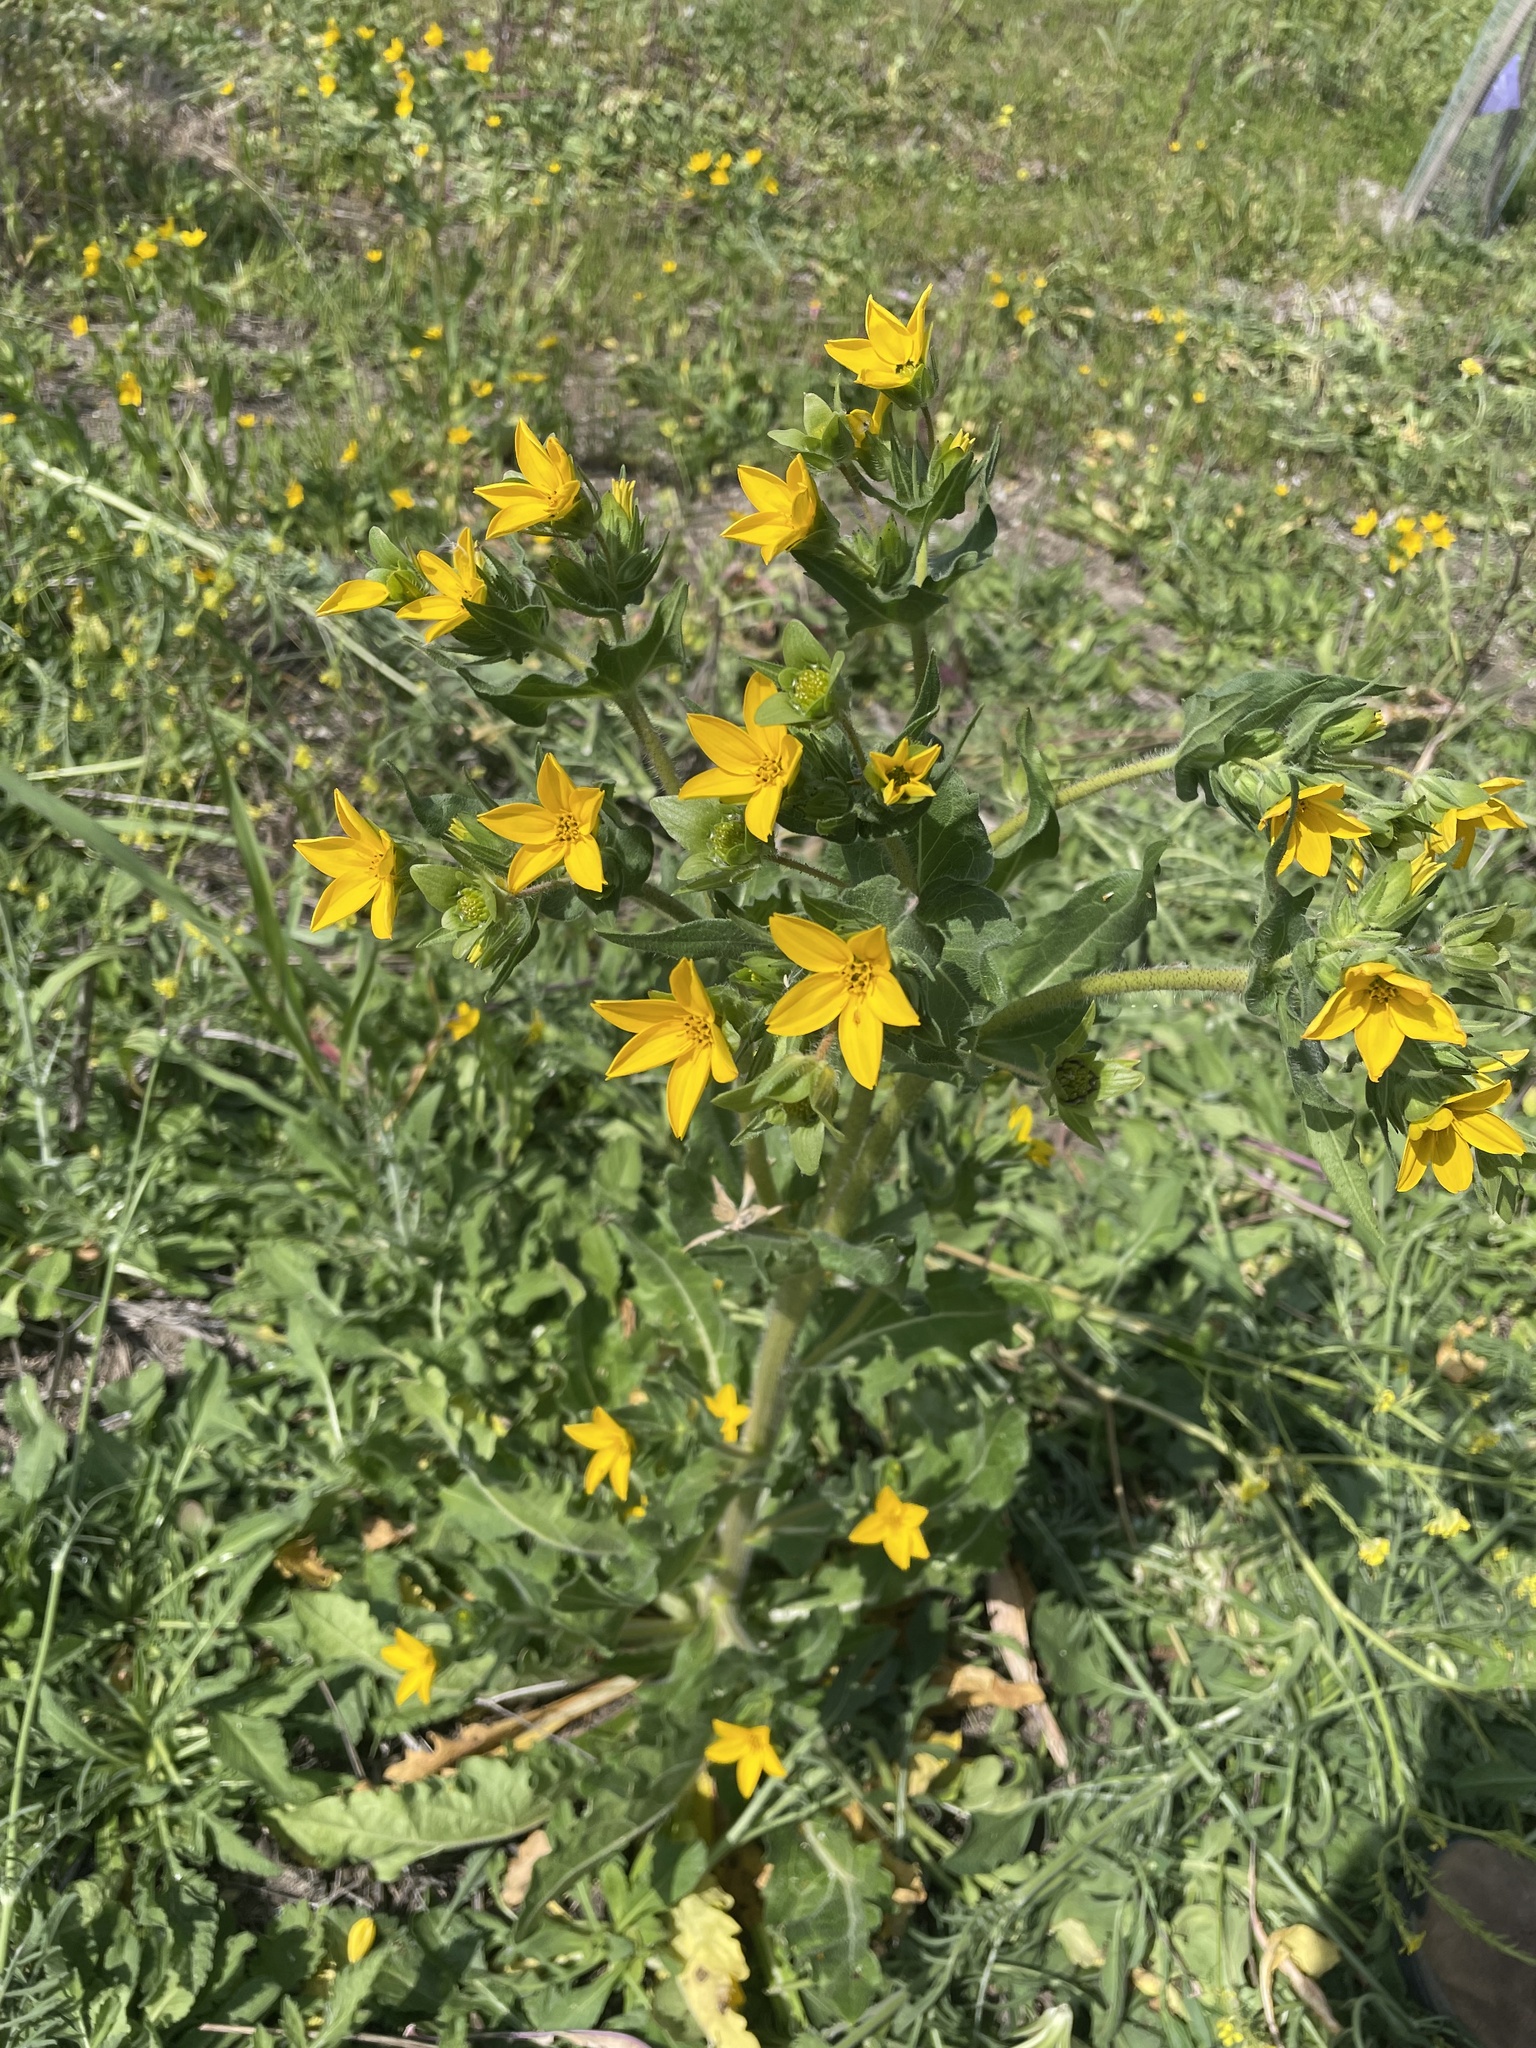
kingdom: Plantae
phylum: Tracheophyta
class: Magnoliopsida
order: Asterales
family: Asteraceae
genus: Lindheimera
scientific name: Lindheimera texana
